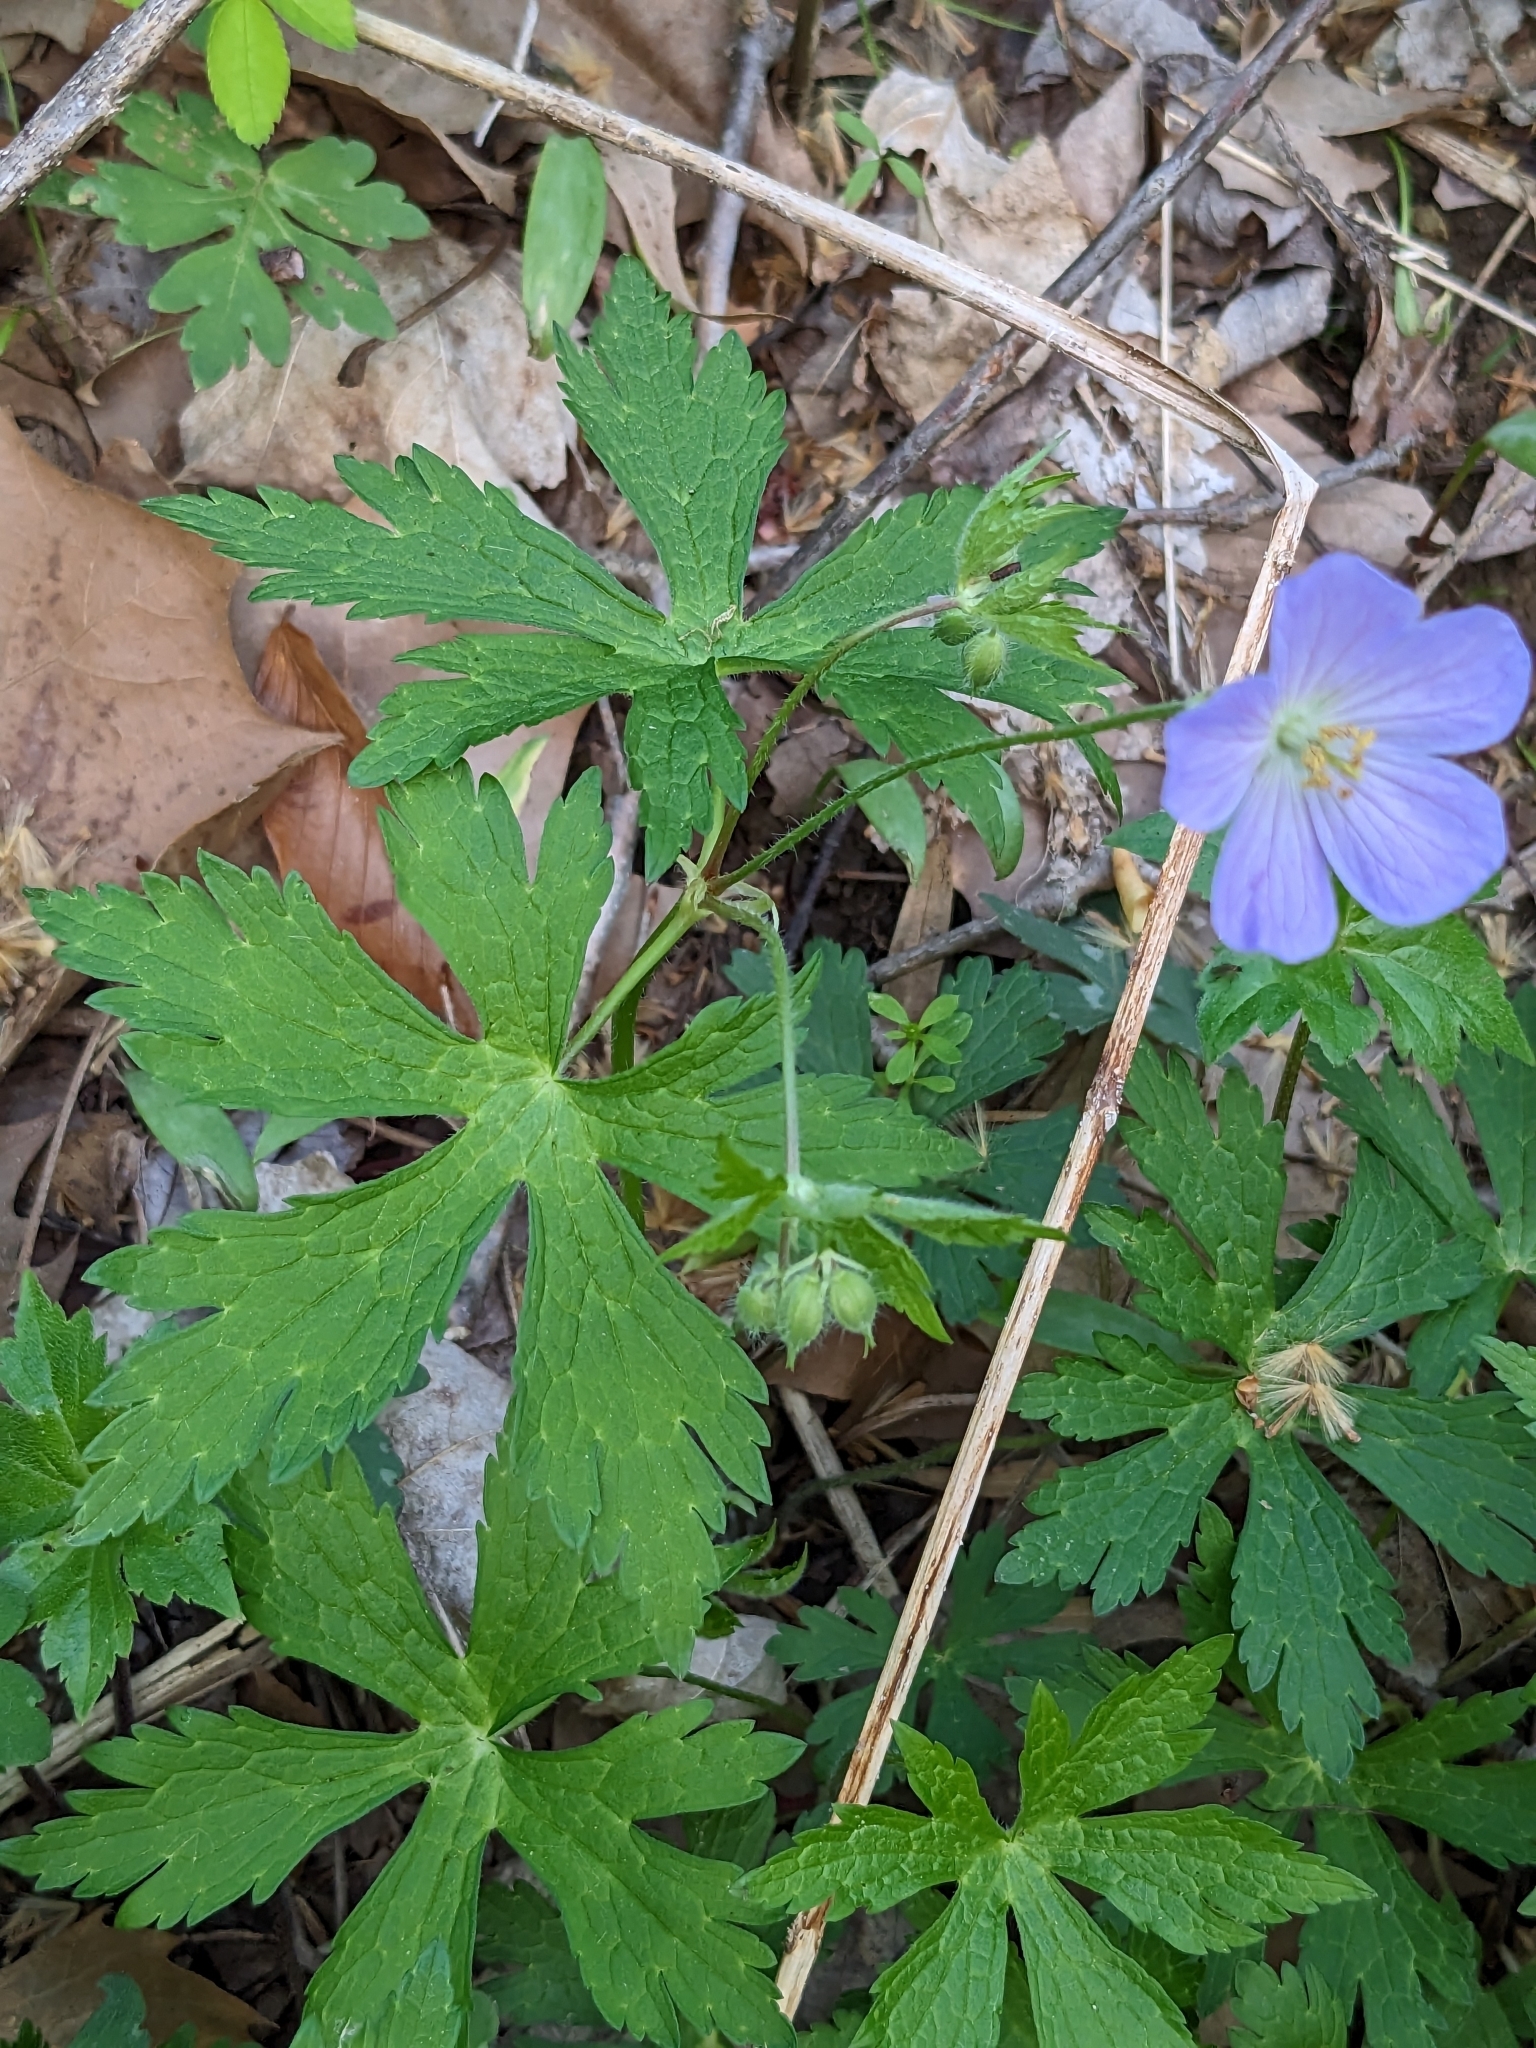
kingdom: Plantae
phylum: Tracheophyta
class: Magnoliopsida
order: Geraniales
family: Geraniaceae
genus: Geranium
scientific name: Geranium maculatum
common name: Spotted geranium
